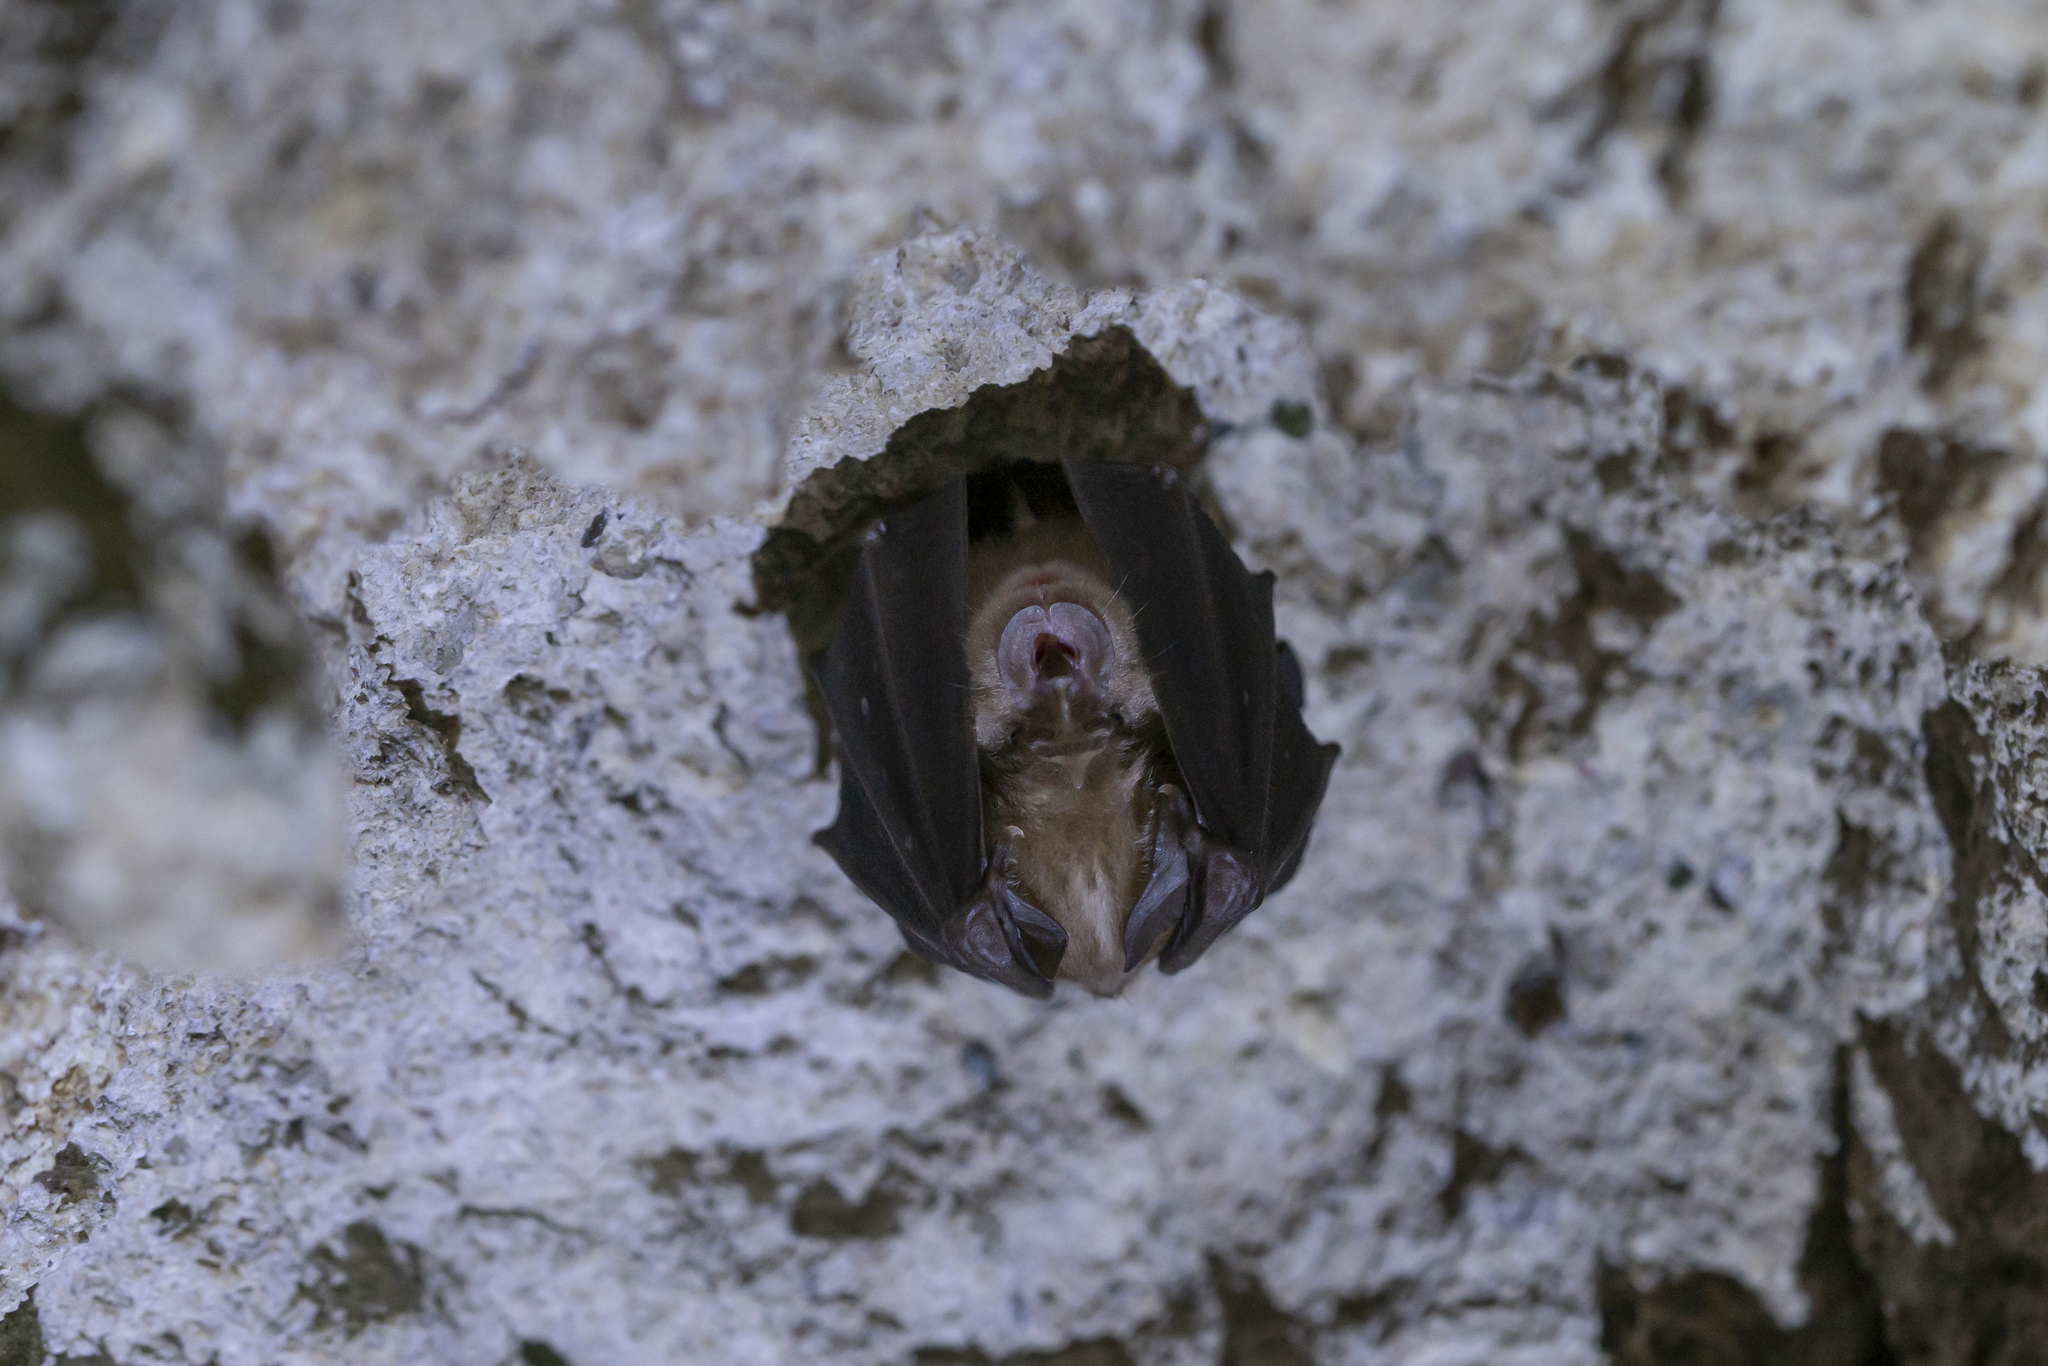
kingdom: Animalia
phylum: Chordata
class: Mammalia
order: Chiroptera
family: Rhinolophidae
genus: Rhinolophus
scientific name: Rhinolophus ferrumequinum
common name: Greater horseshoe bat
